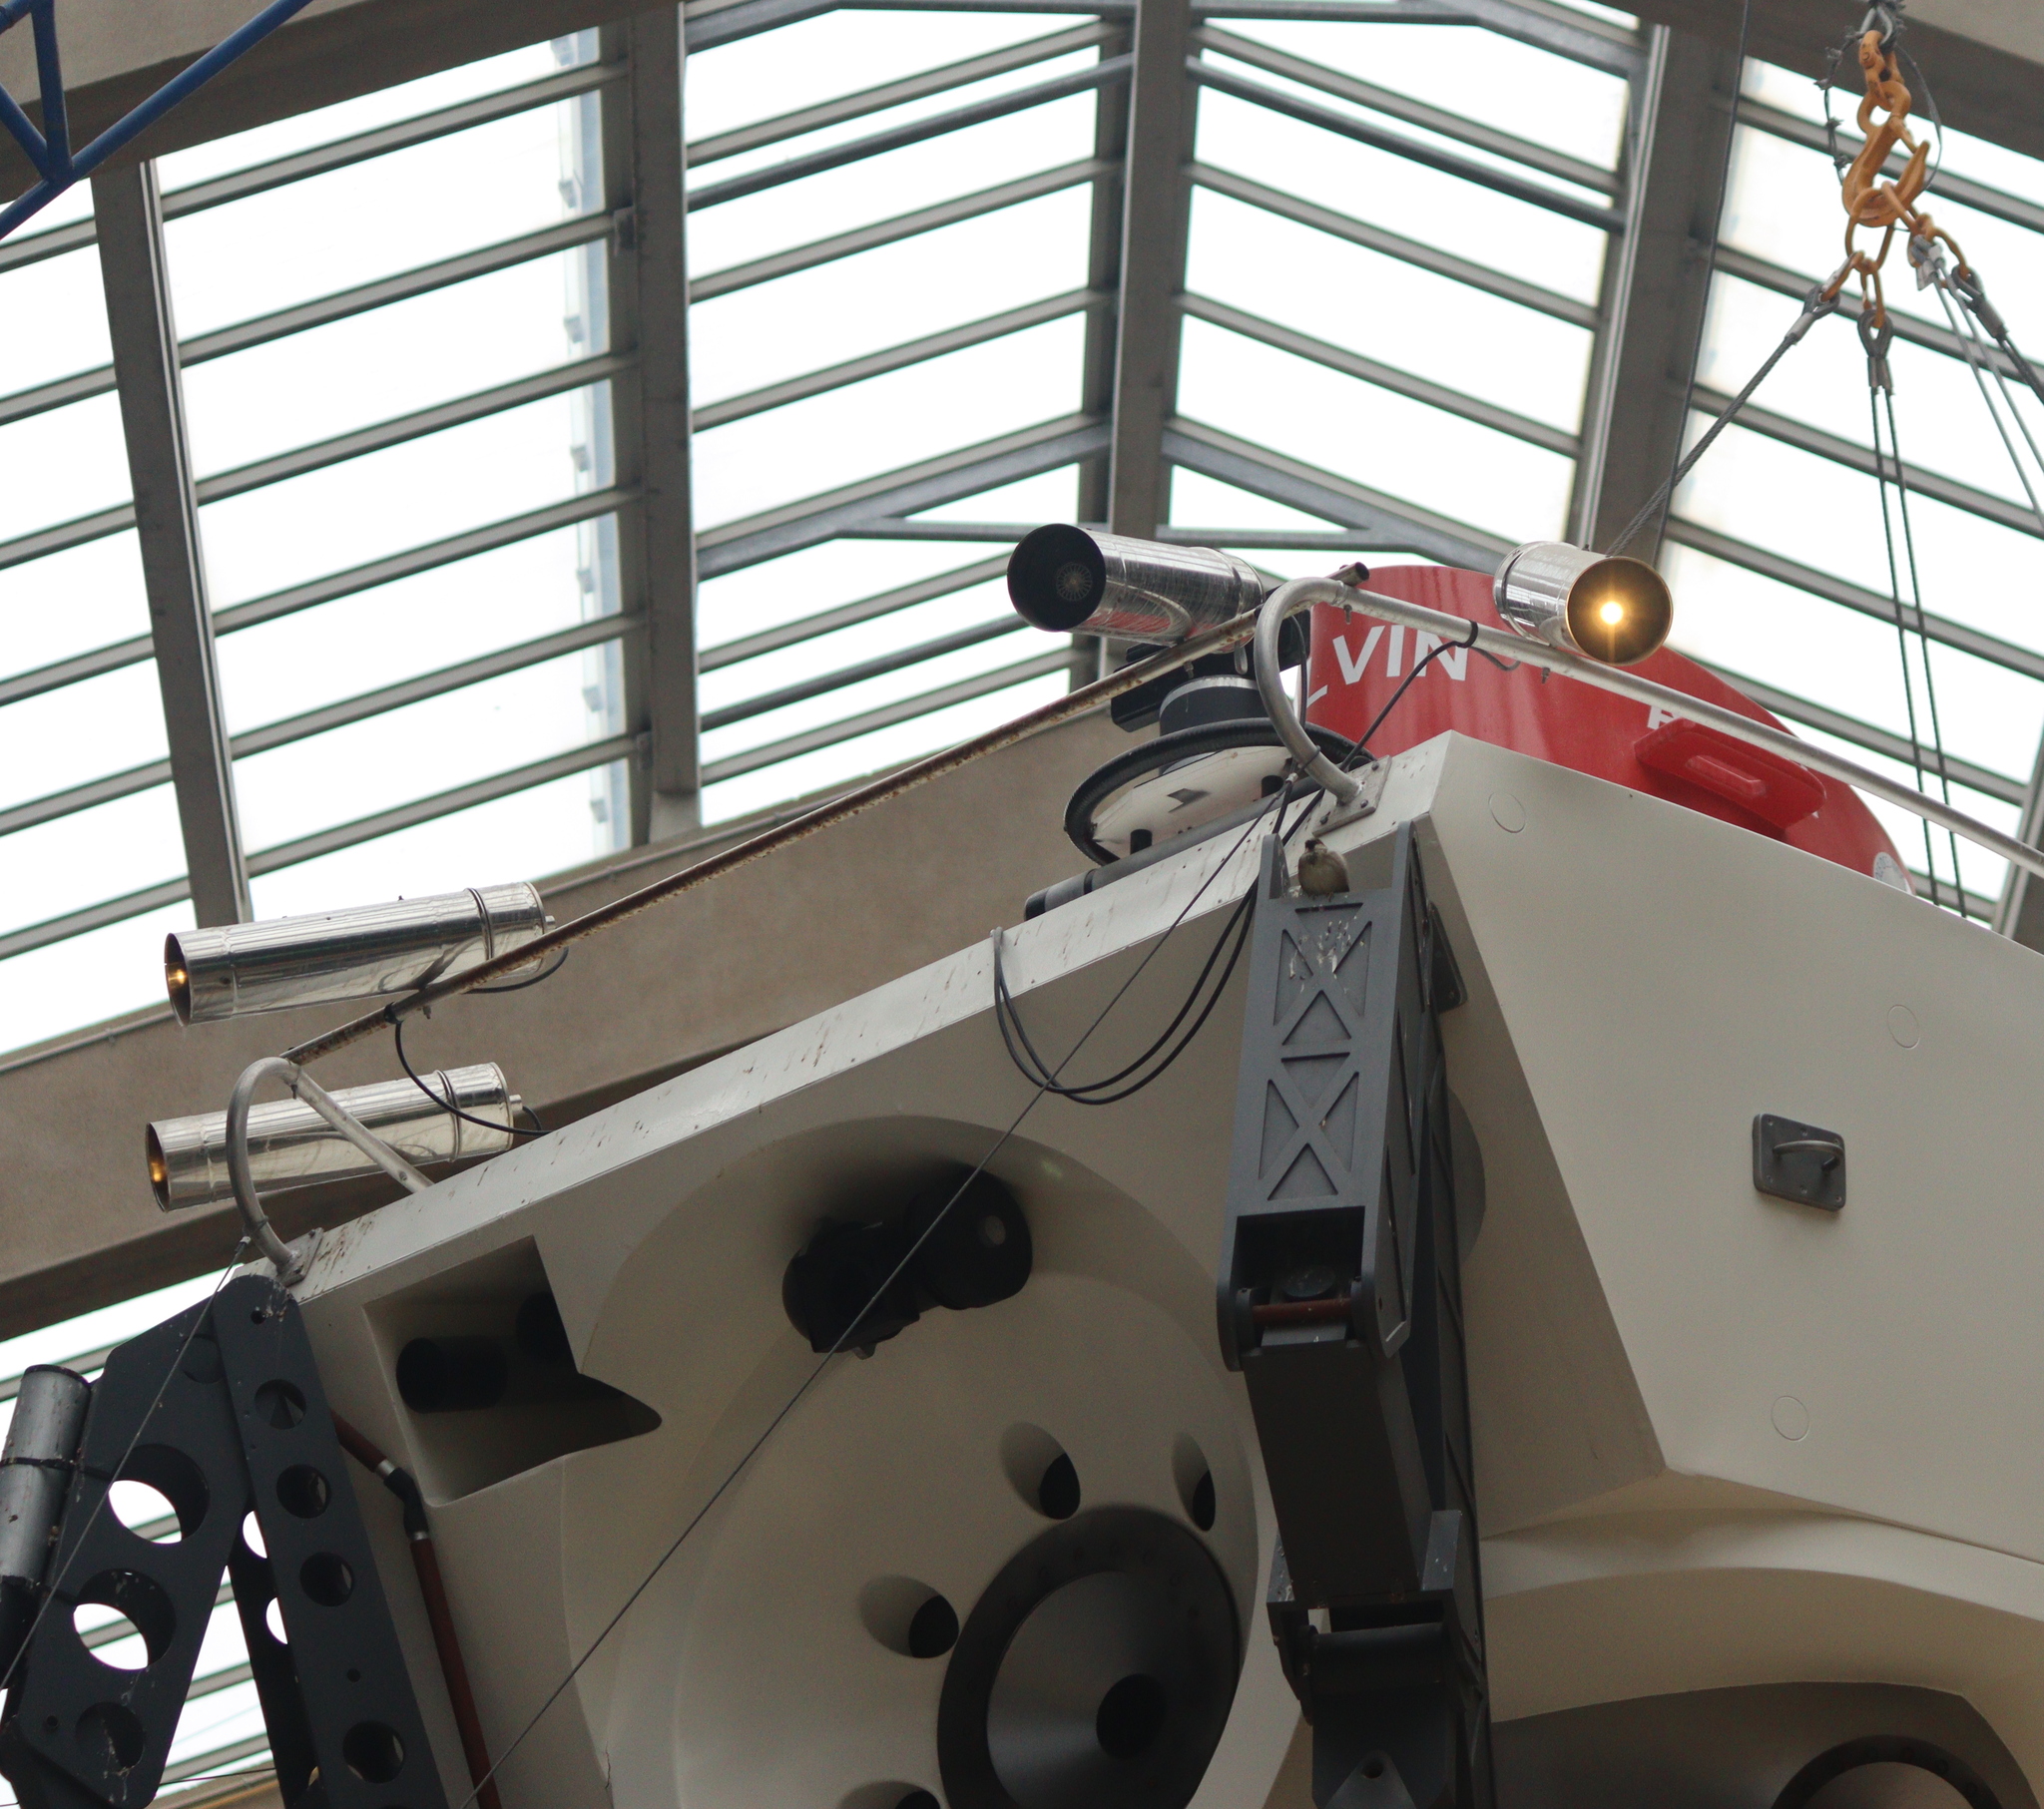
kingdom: Animalia
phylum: Chordata
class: Aves
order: Passeriformes
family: Passeridae
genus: Passer
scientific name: Passer domesticus
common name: House sparrow
